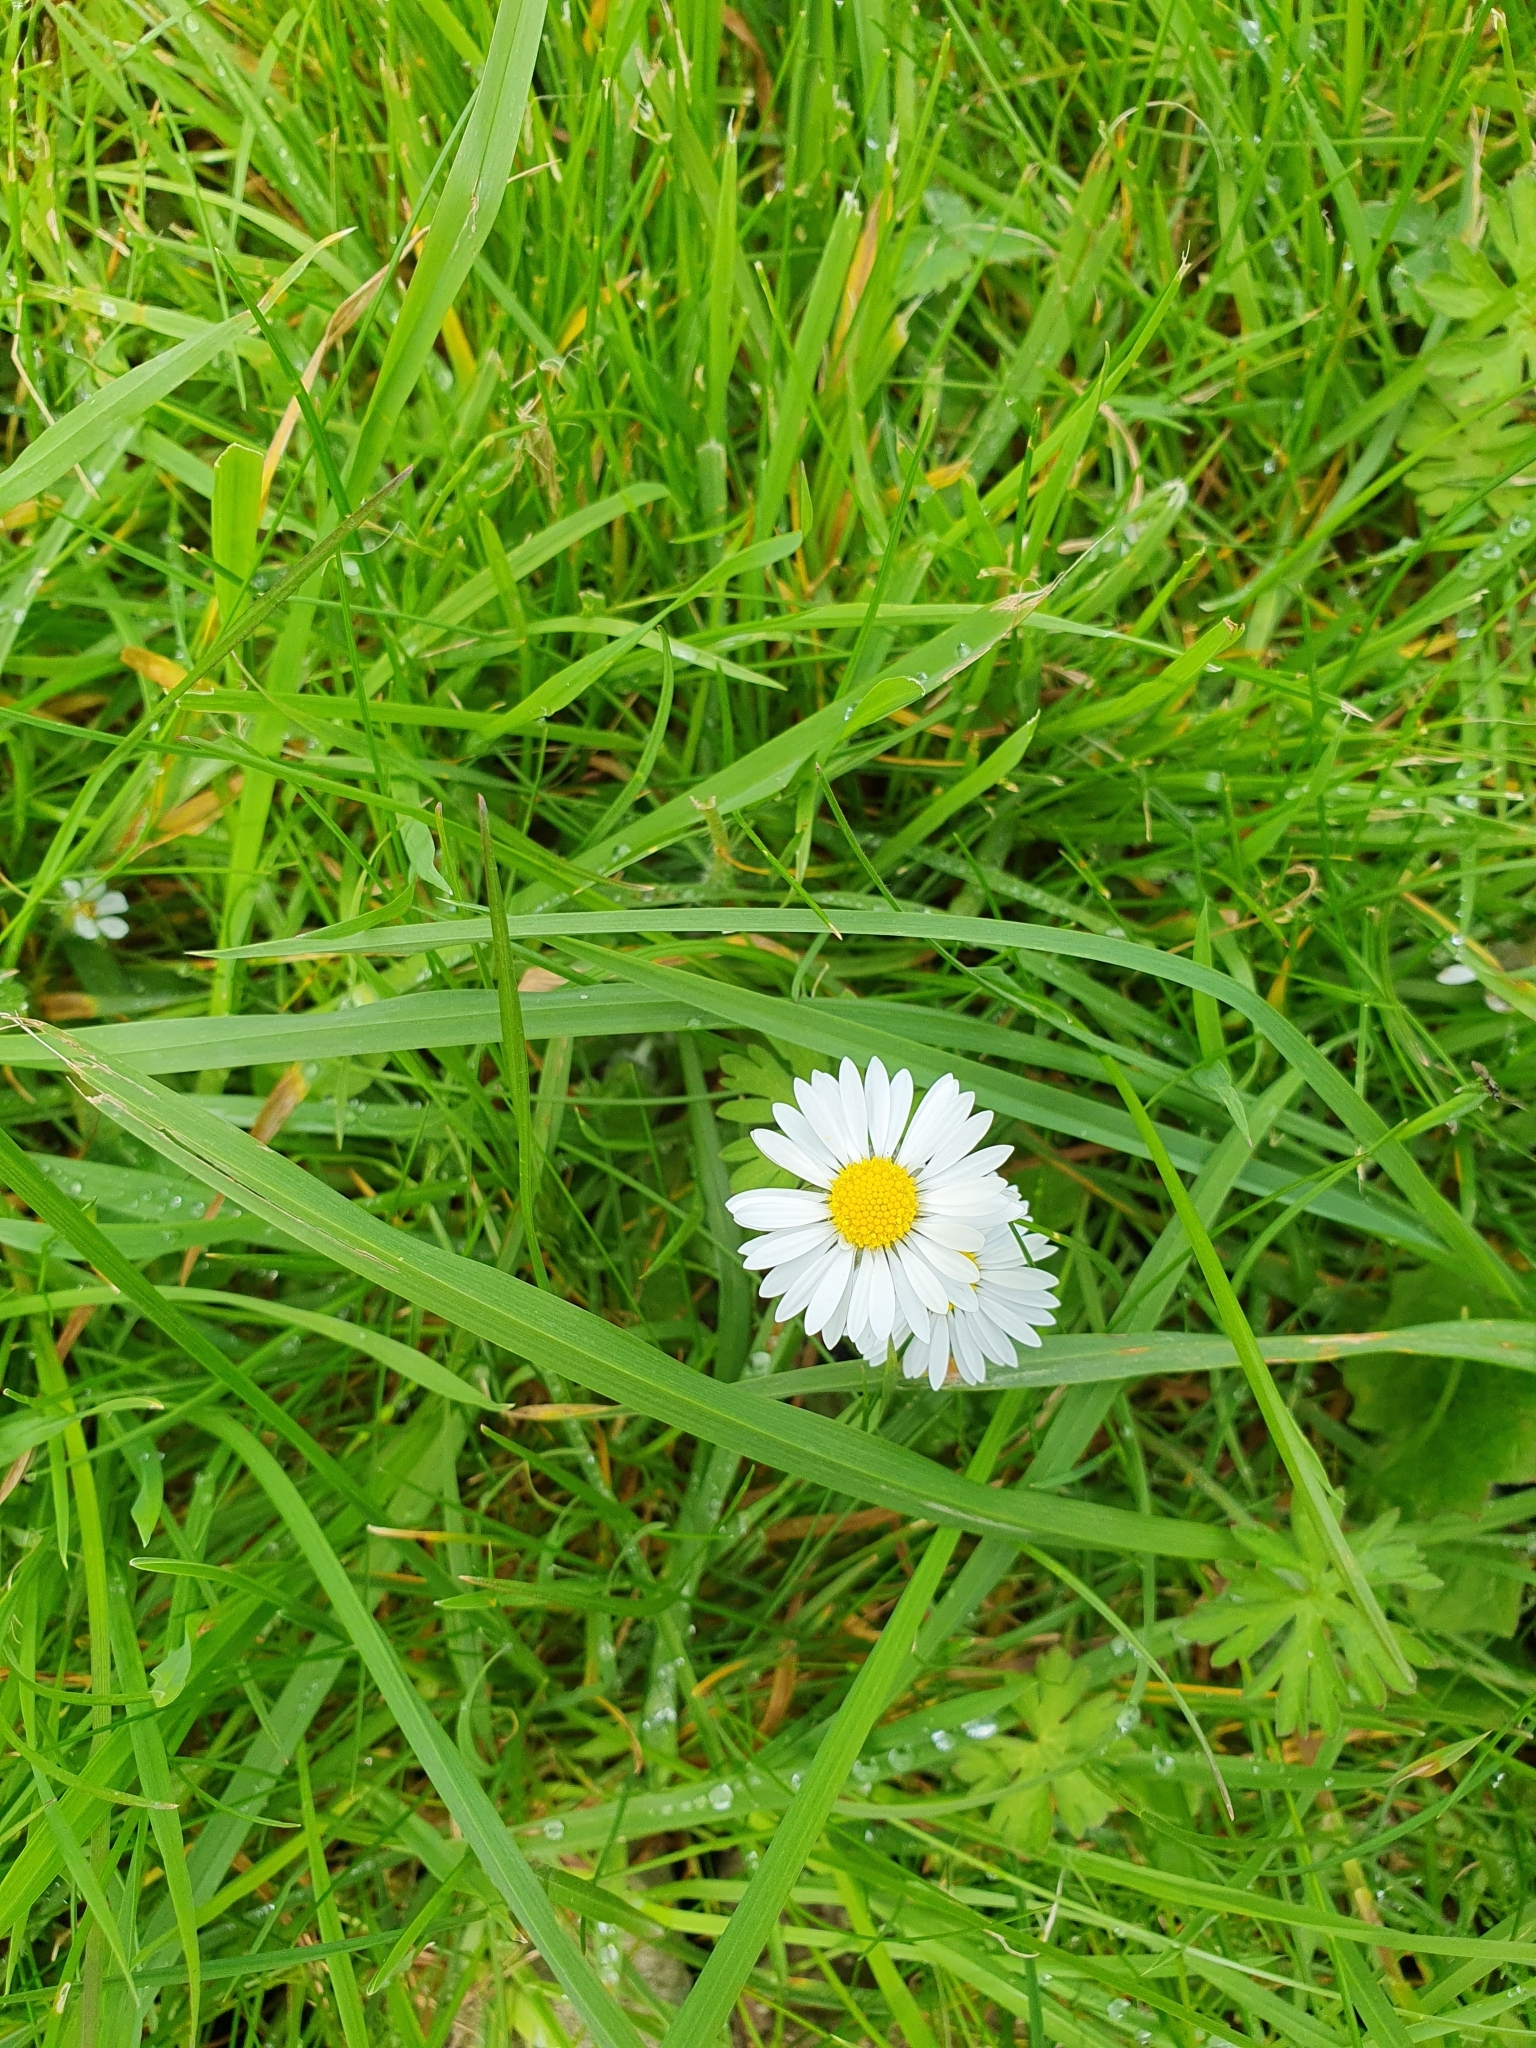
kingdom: Plantae
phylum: Tracheophyta
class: Magnoliopsida
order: Asterales
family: Asteraceae
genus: Bellis
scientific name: Bellis perennis
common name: Lawndaisy
